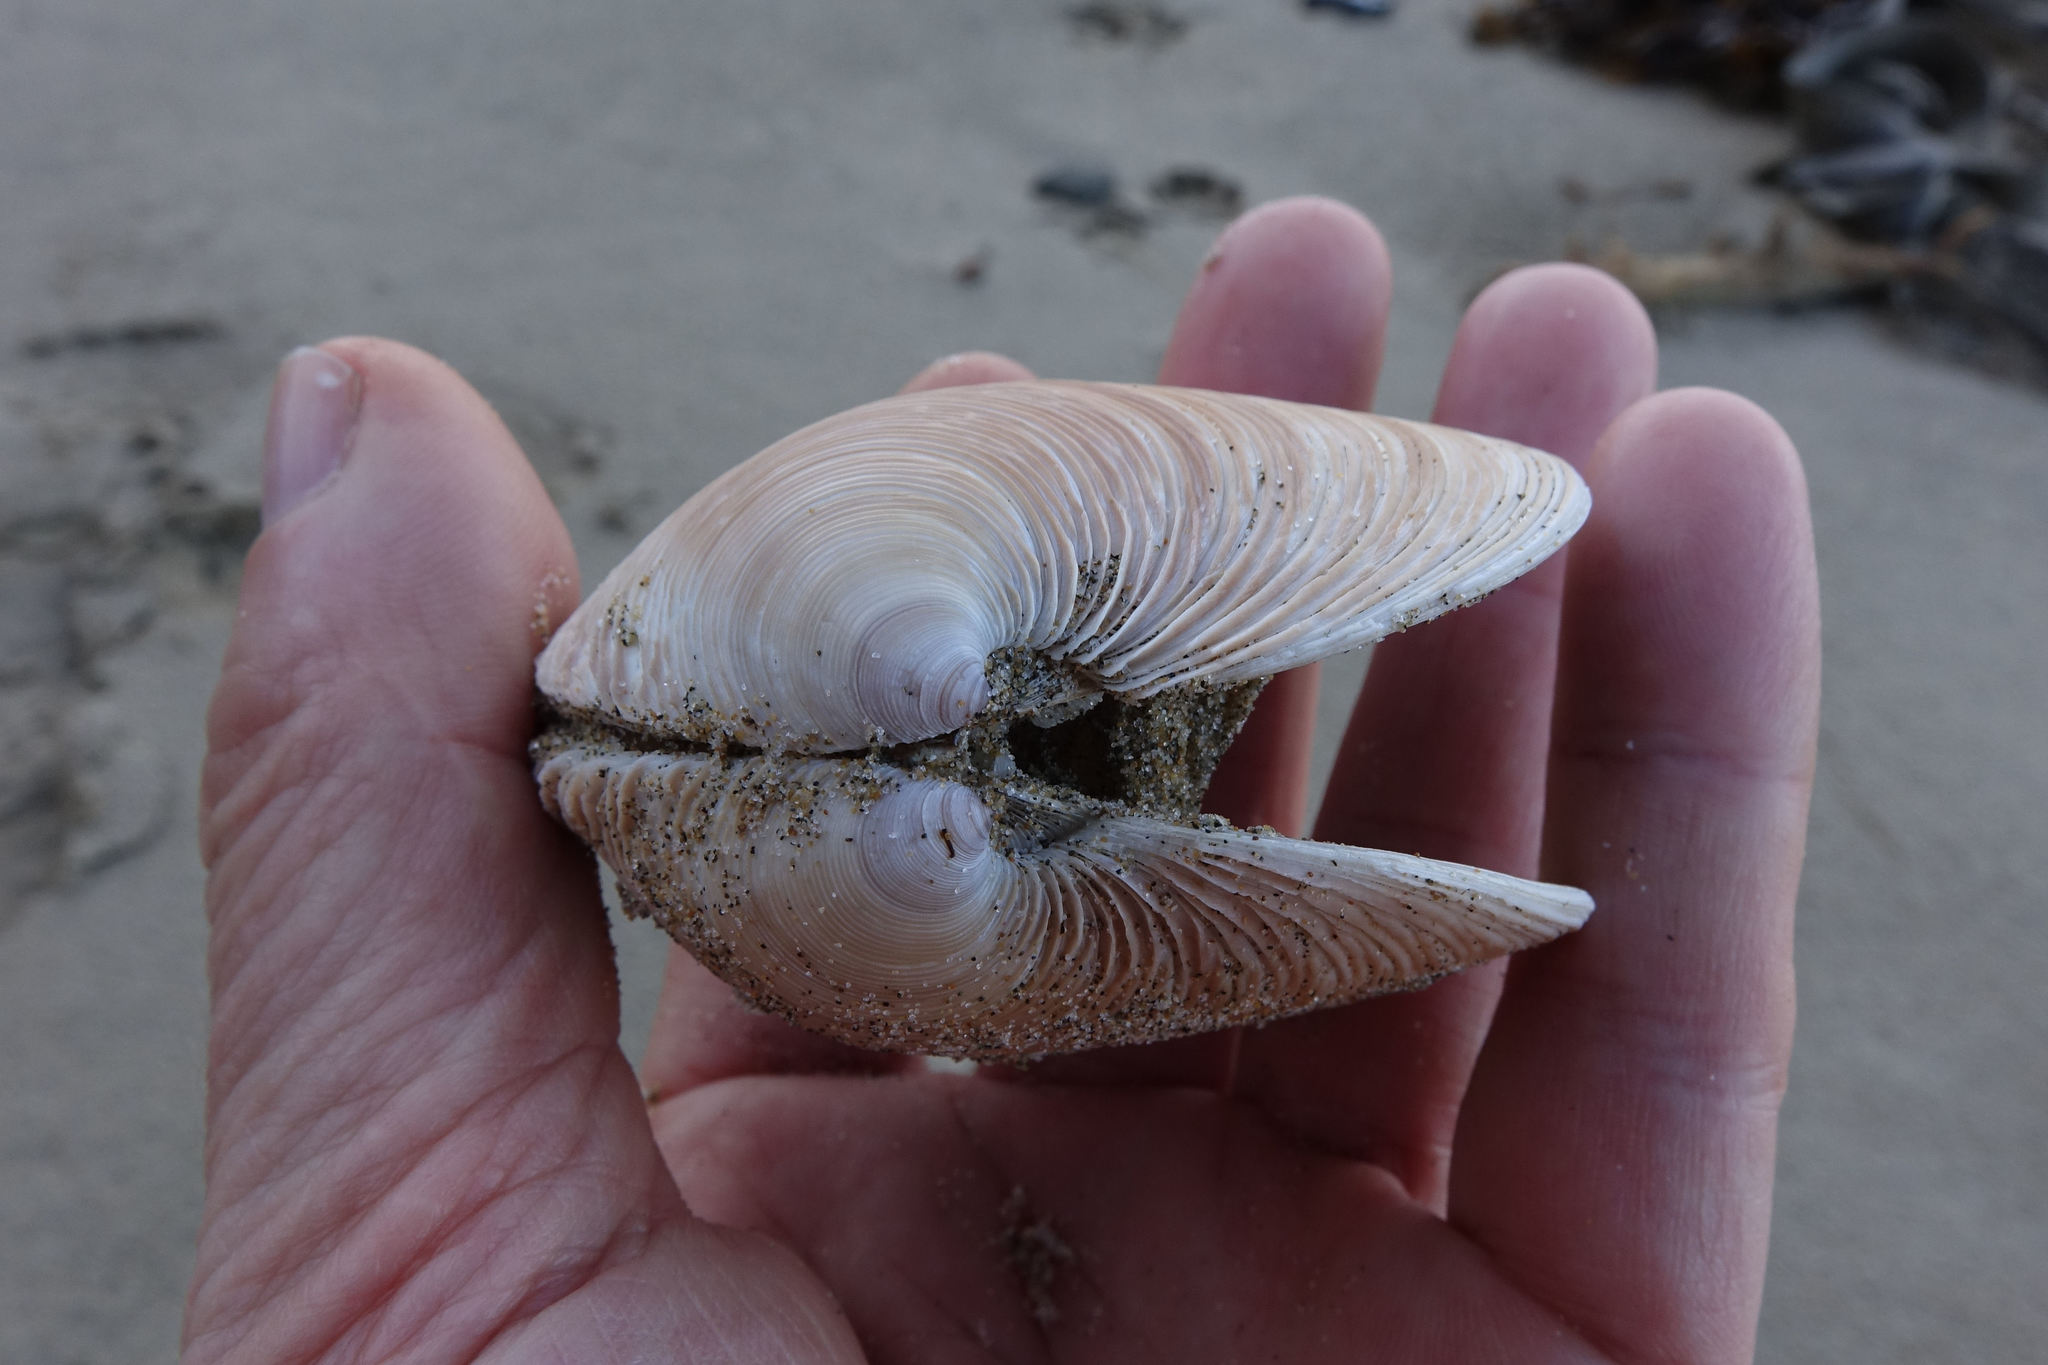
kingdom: Animalia
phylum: Mollusca
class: Bivalvia
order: Venerida
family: Veneridae
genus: Dosinia
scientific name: Dosinia anus
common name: Old-woman dosinia
